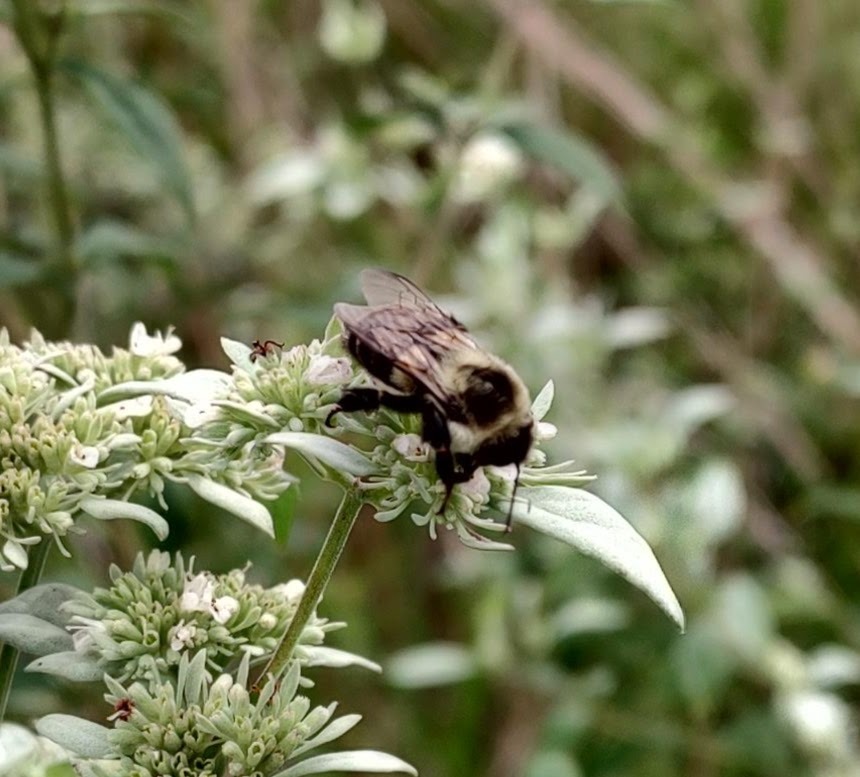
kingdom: Animalia
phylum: Arthropoda
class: Insecta
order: Hymenoptera
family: Apidae
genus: Bombus
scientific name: Bombus impatiens
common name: Common eastern bumble bee
